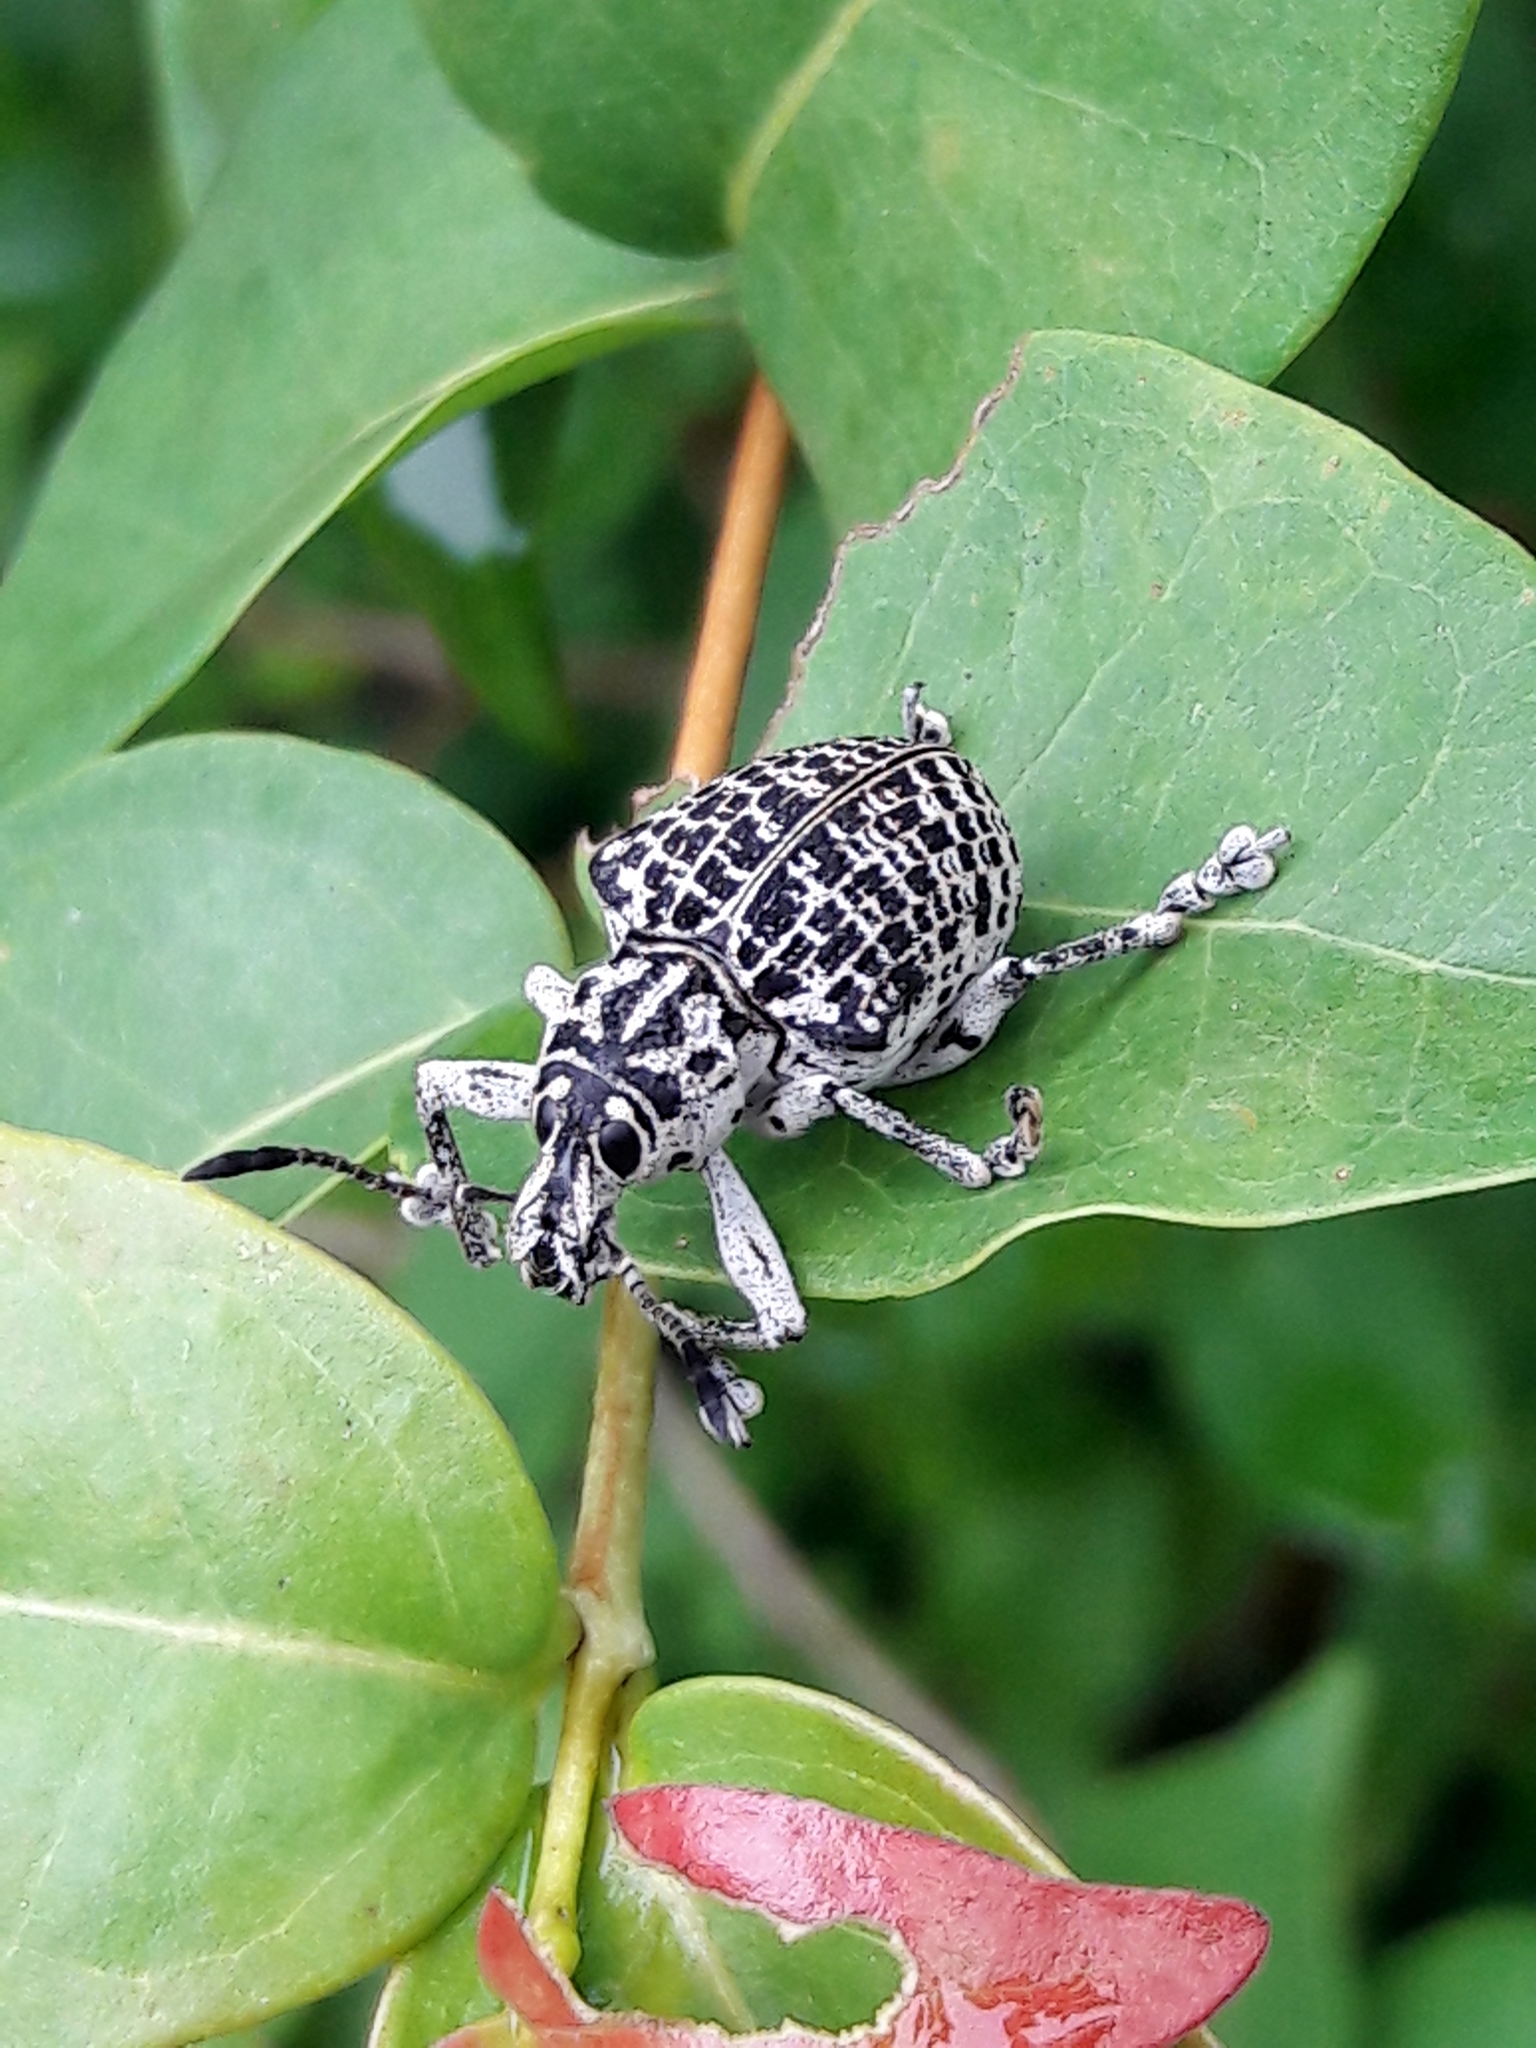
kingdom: Animalia
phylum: Arthropoda
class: Insecta
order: Coleoptera
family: Curculionidae
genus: Cydianerus
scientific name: Cydianerus latruncularius
